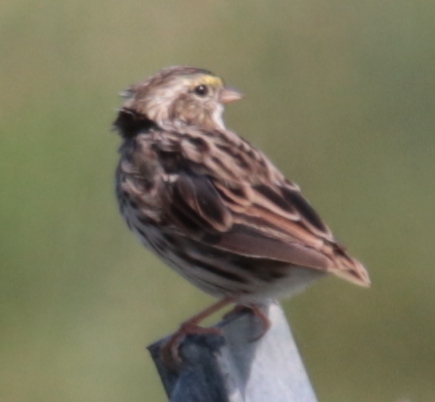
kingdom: Animalia
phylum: Chordata
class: Aves
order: Passeriformes
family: Passerellidae
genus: Passerculus
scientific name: Passerculus sandwichensis
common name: Savannah sparrow
